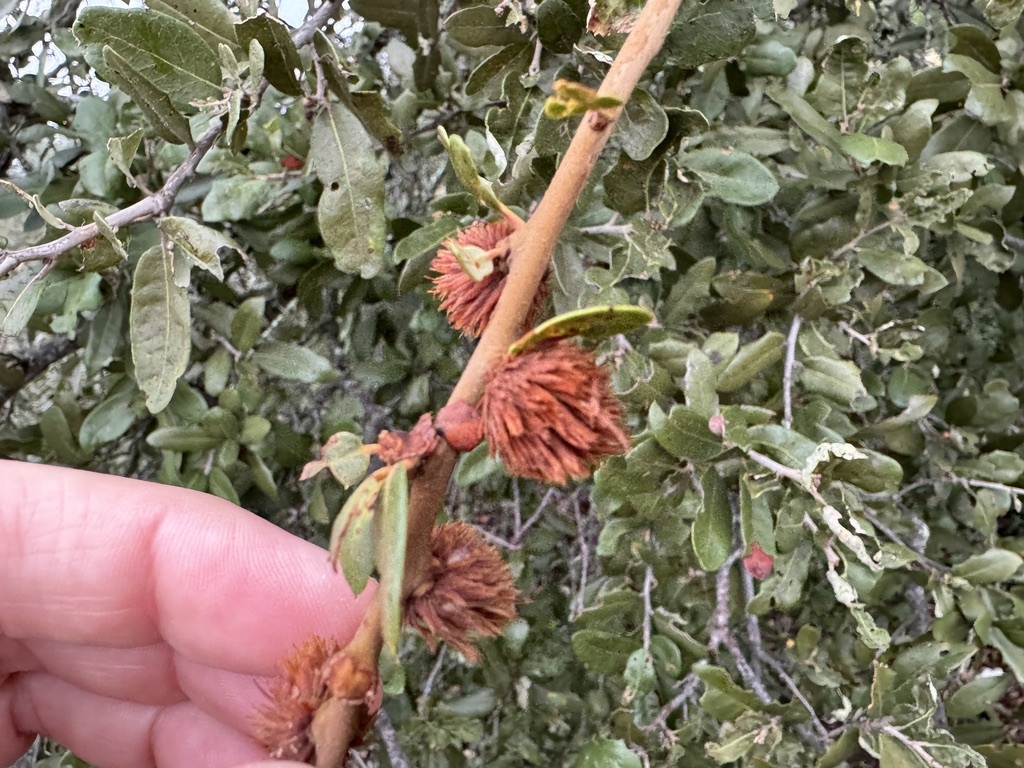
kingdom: Animalia
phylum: Arthropoda
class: Insecta
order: Hymenoptera
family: Cynipidae
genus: Andricus
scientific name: Andricus quercusfoliatus
